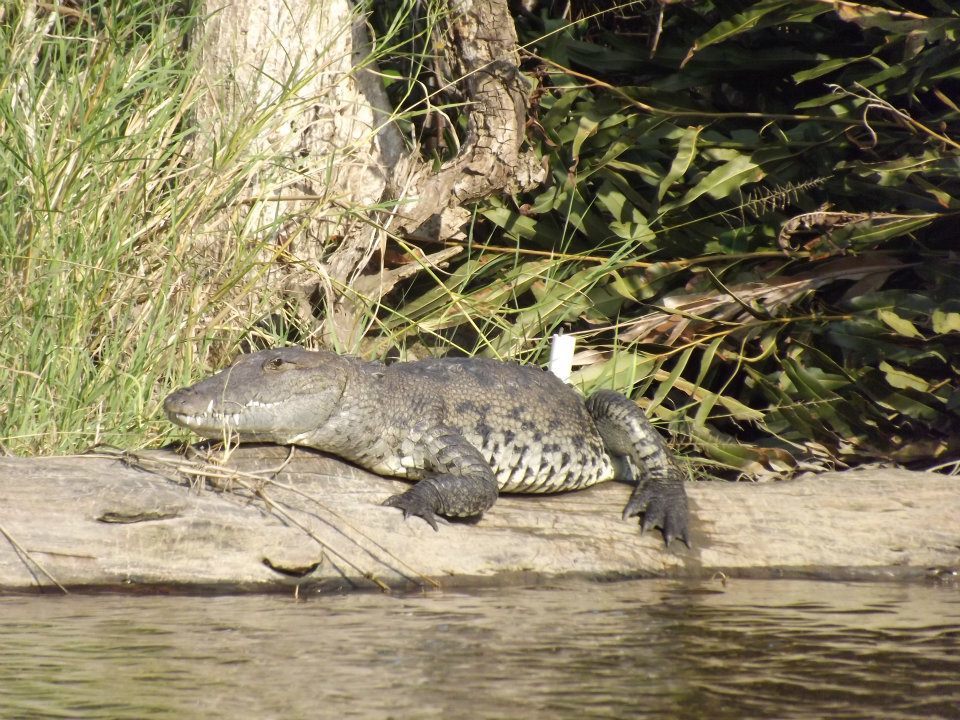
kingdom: Animalia
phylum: Chordata
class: Crocodylia
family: Crocodylidae
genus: Crocodylus
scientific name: Crocodylus moreletii
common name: Morelet's crocodile
